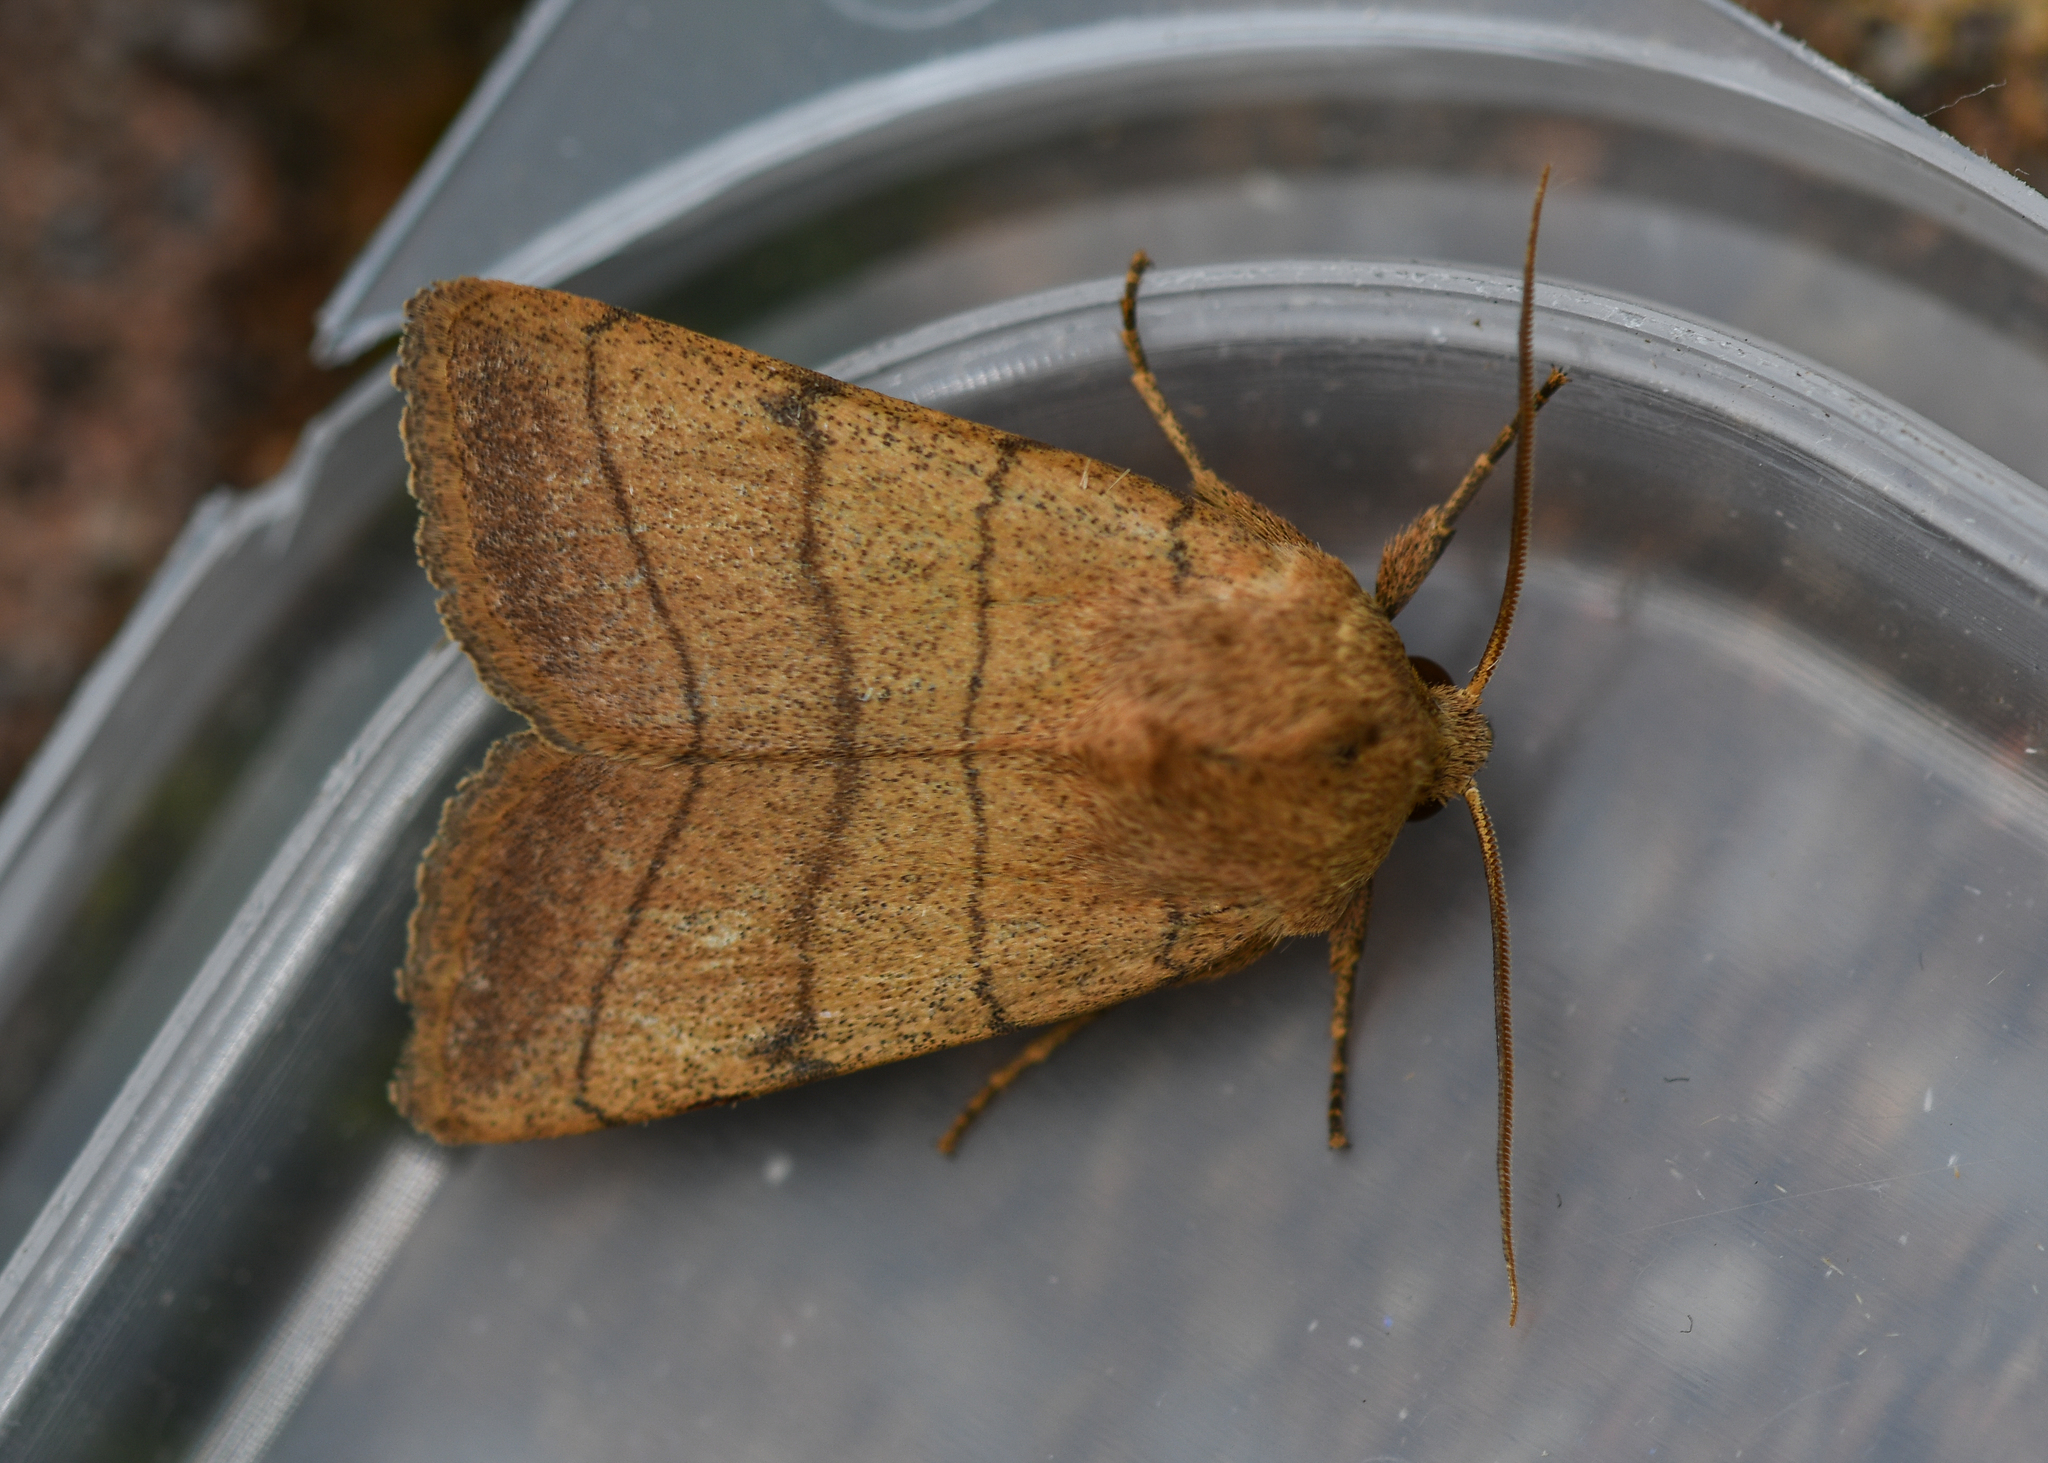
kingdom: Animalia
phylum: Arthropoda
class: Insecta
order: Lepidoptera
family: Noctuidae
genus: Charanyca
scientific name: Charanyca trigrammica
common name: Treble lines
